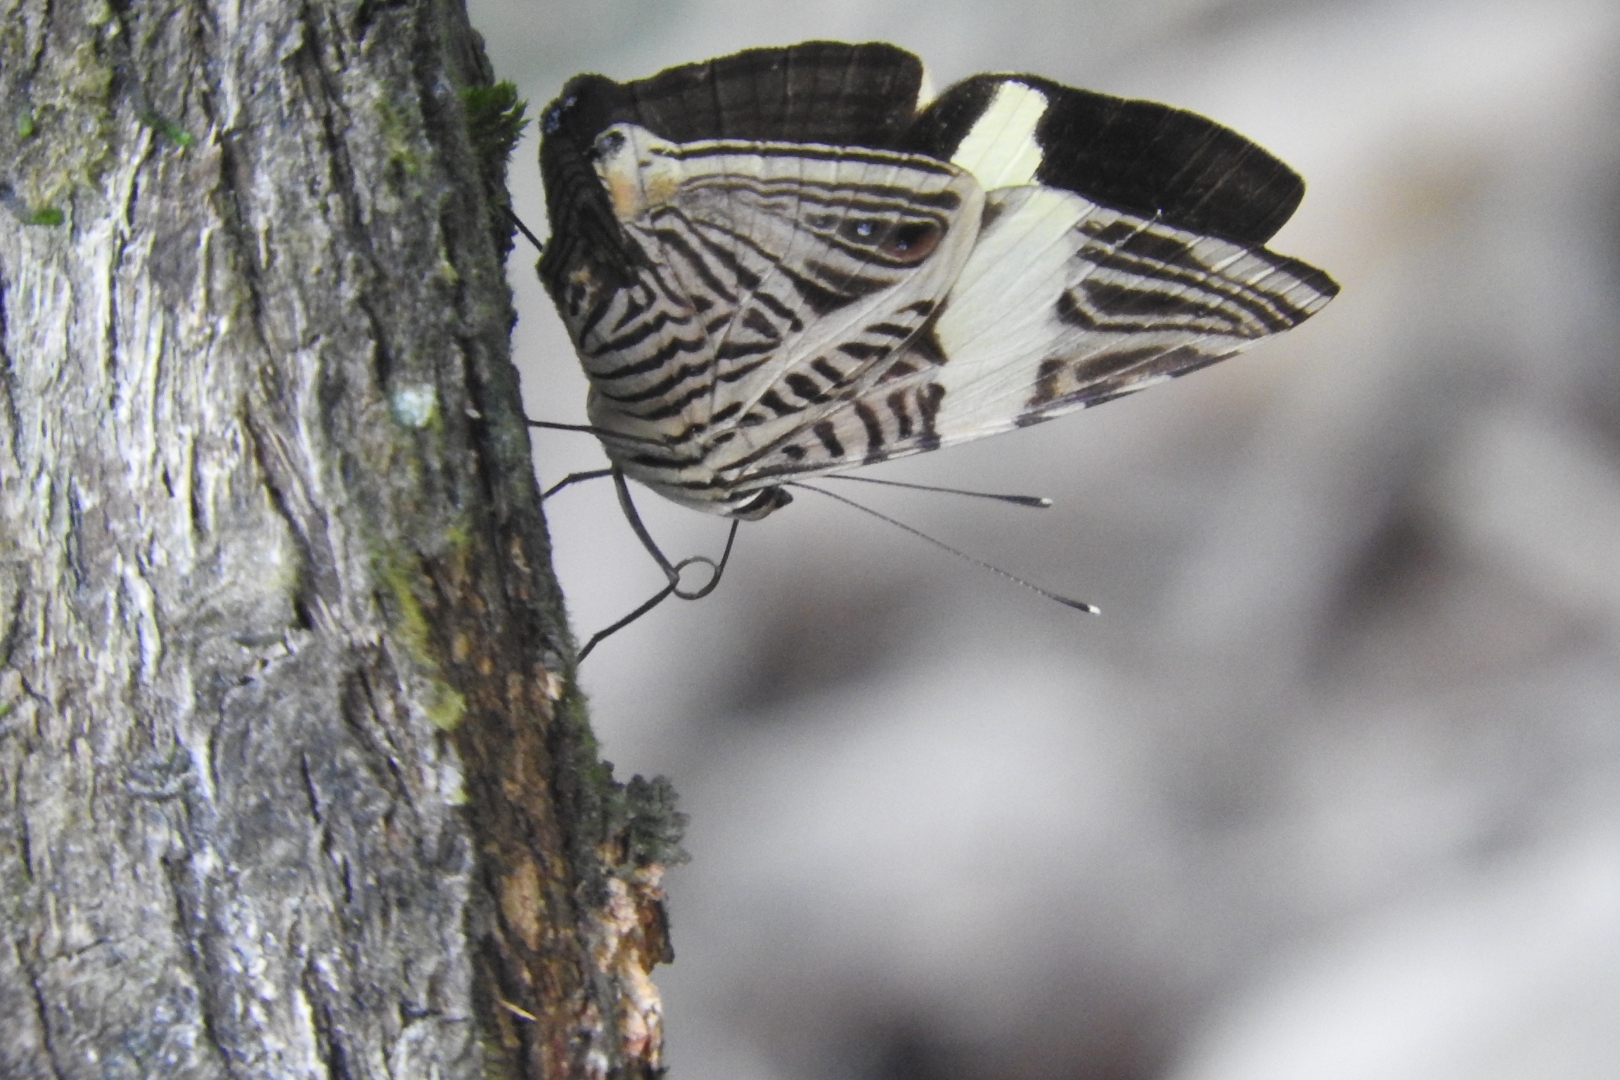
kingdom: Animalia
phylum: Arthropoda
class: Insecta
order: Lepidoptera
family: Nymphalidae
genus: Colobura
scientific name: Colobura dirce
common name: Dirce beauty
